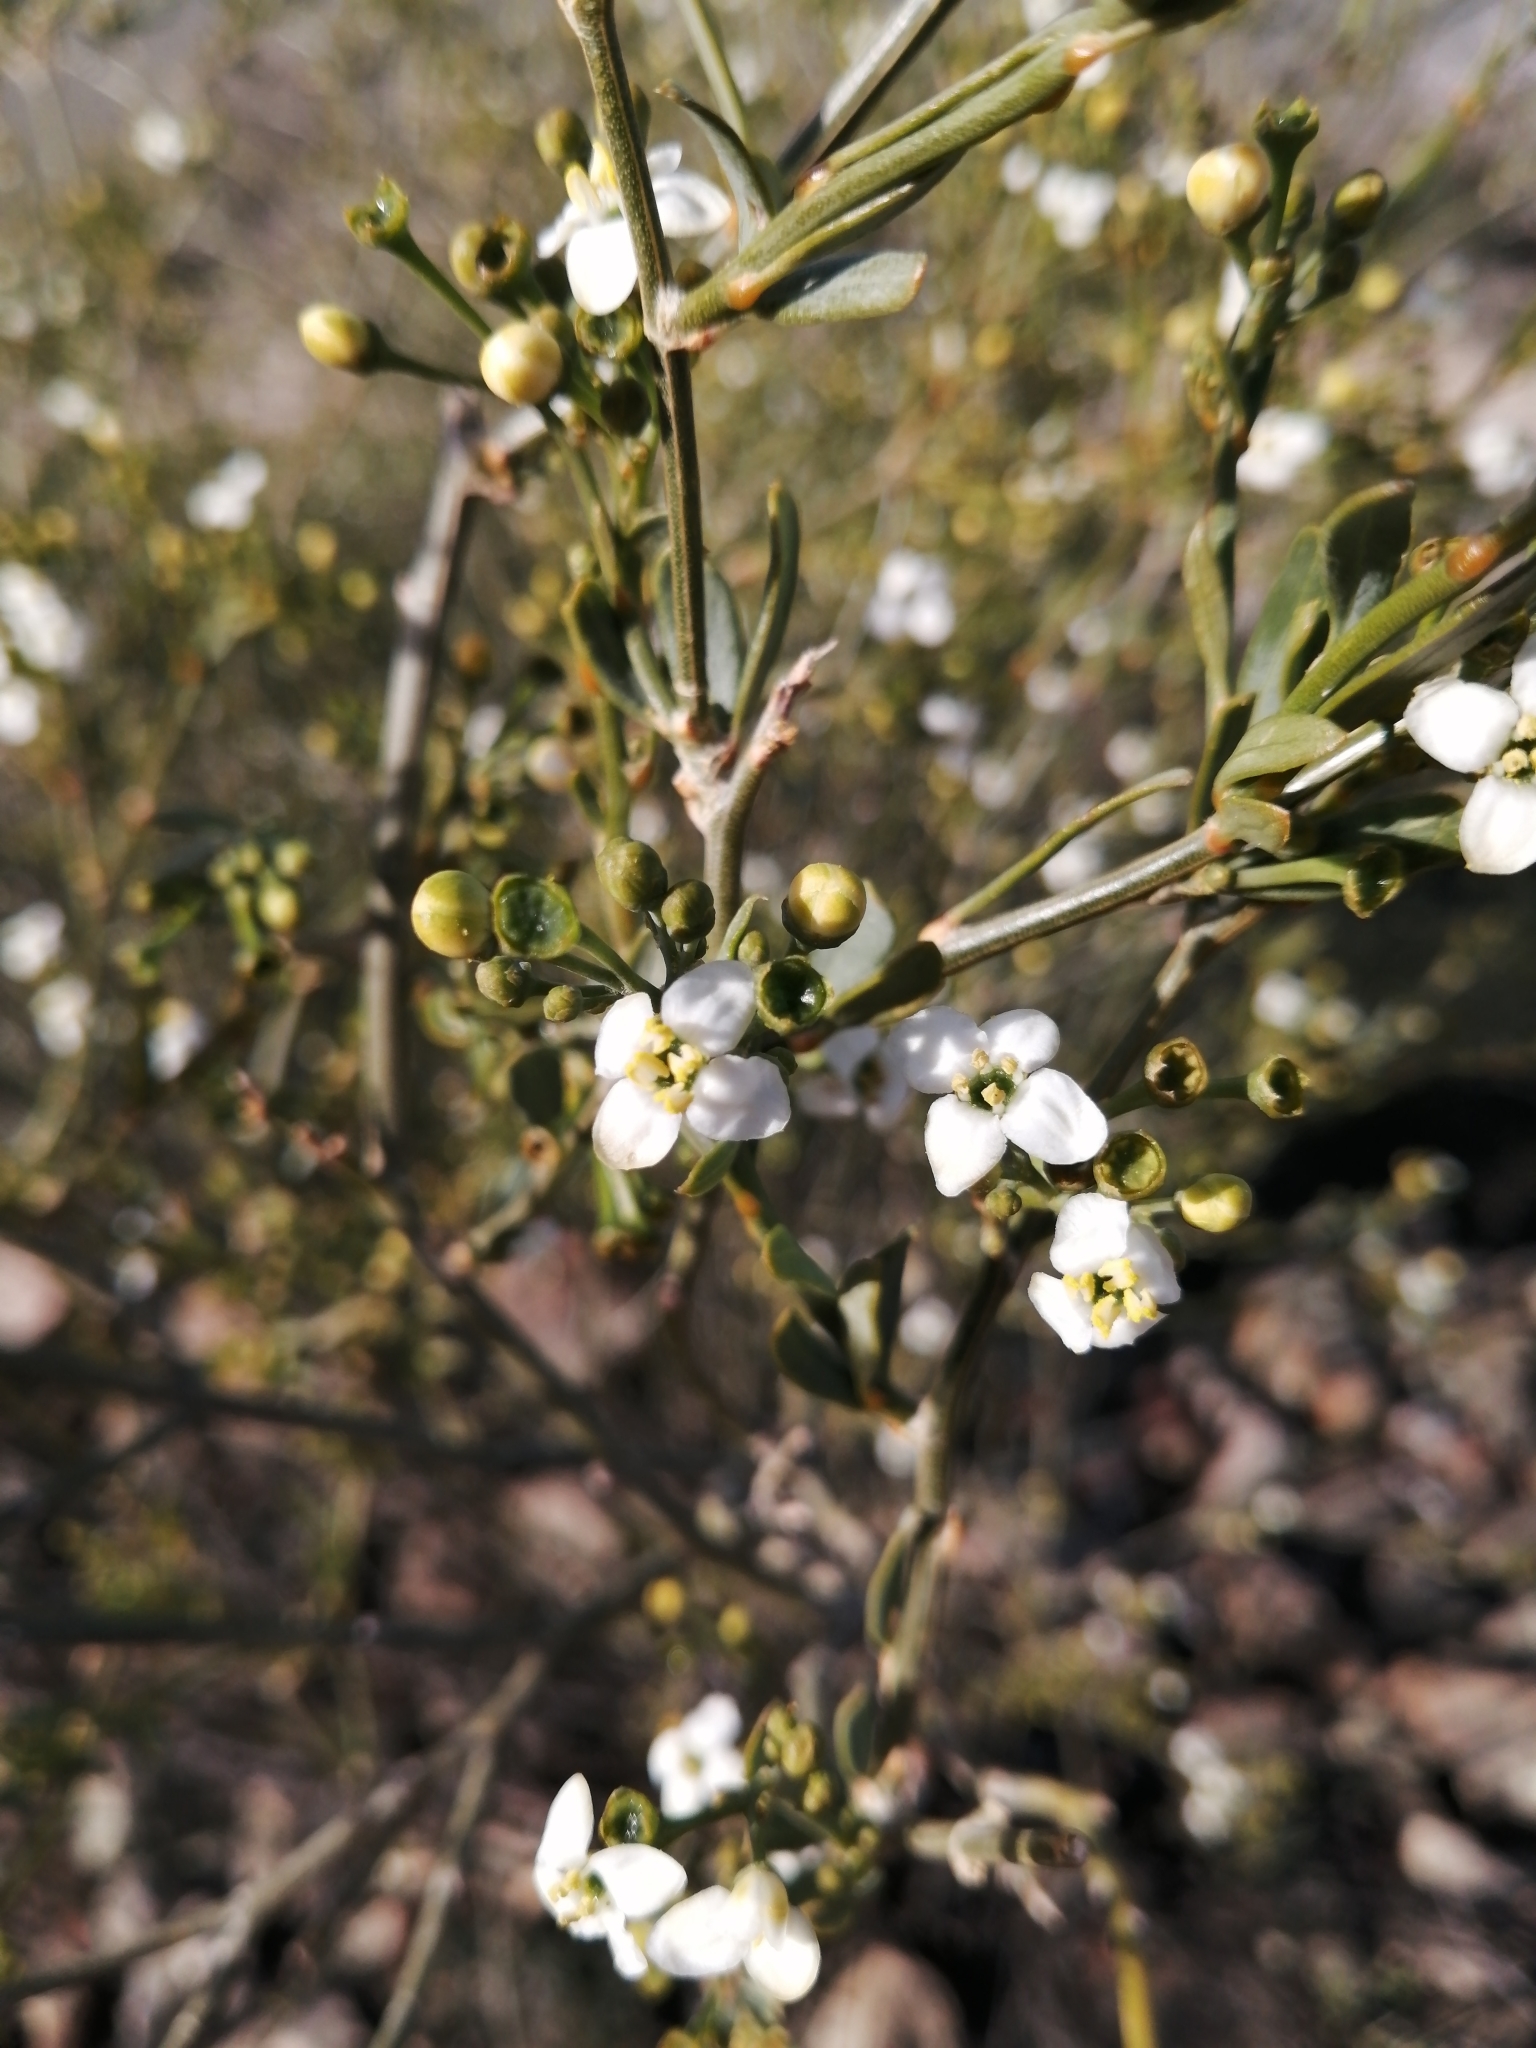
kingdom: Plantae
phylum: Tracheophyta
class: Magnoliopsida
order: Solanales
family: Montiniaceae
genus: Montinia
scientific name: Montinia caryophyllacea
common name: Wild clove-bush
